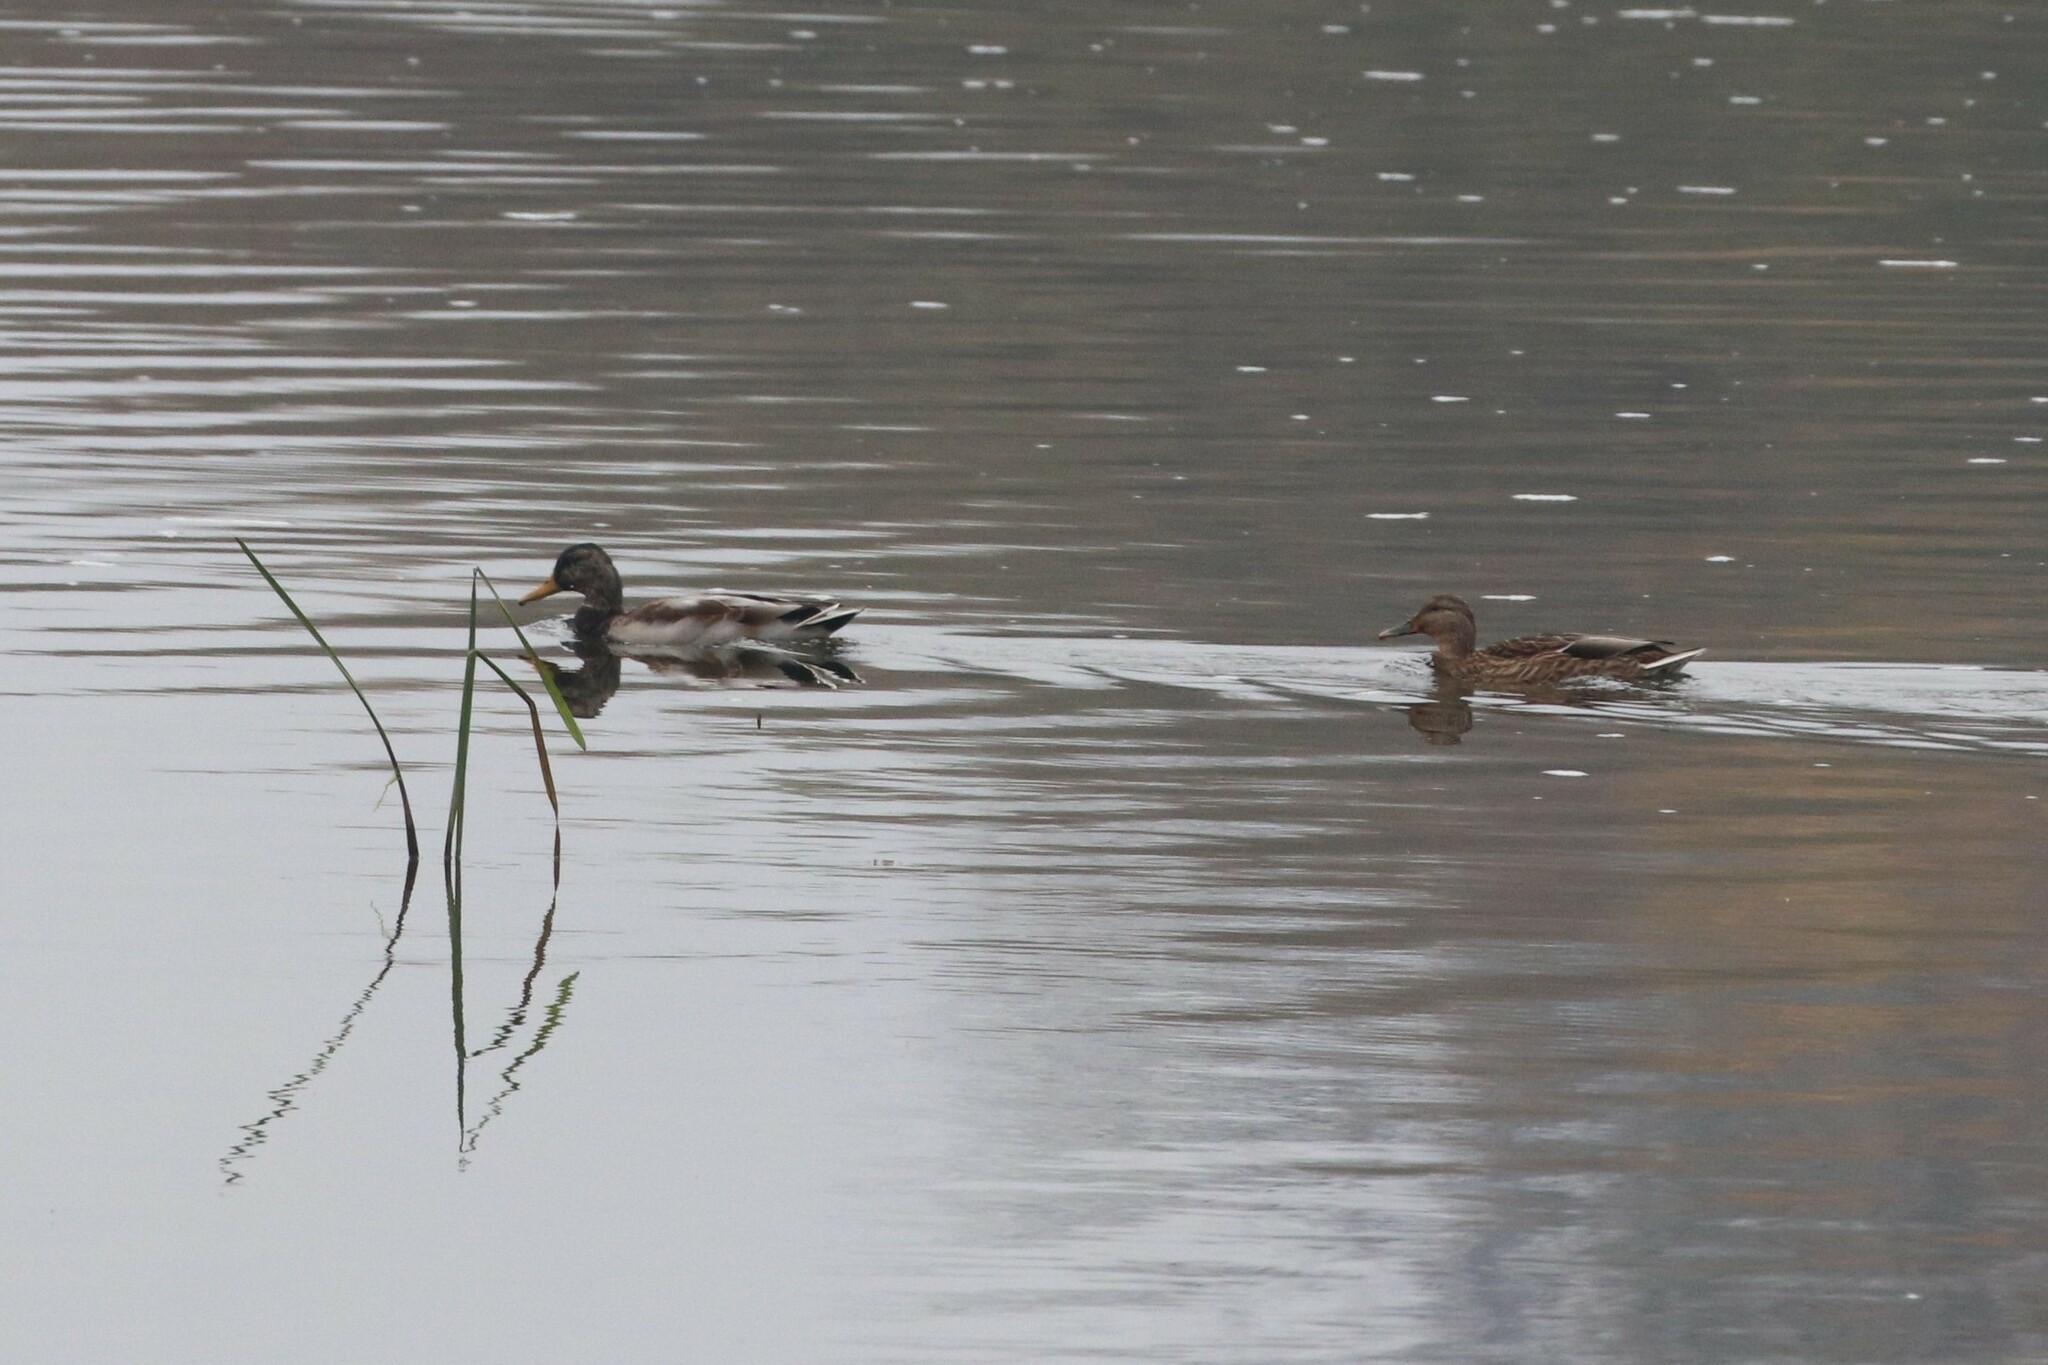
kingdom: Animalia
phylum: Chordata
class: Aves
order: Anseriformes
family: Anatidae
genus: Anas
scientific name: Anas platyrhynchos
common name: Mallard
